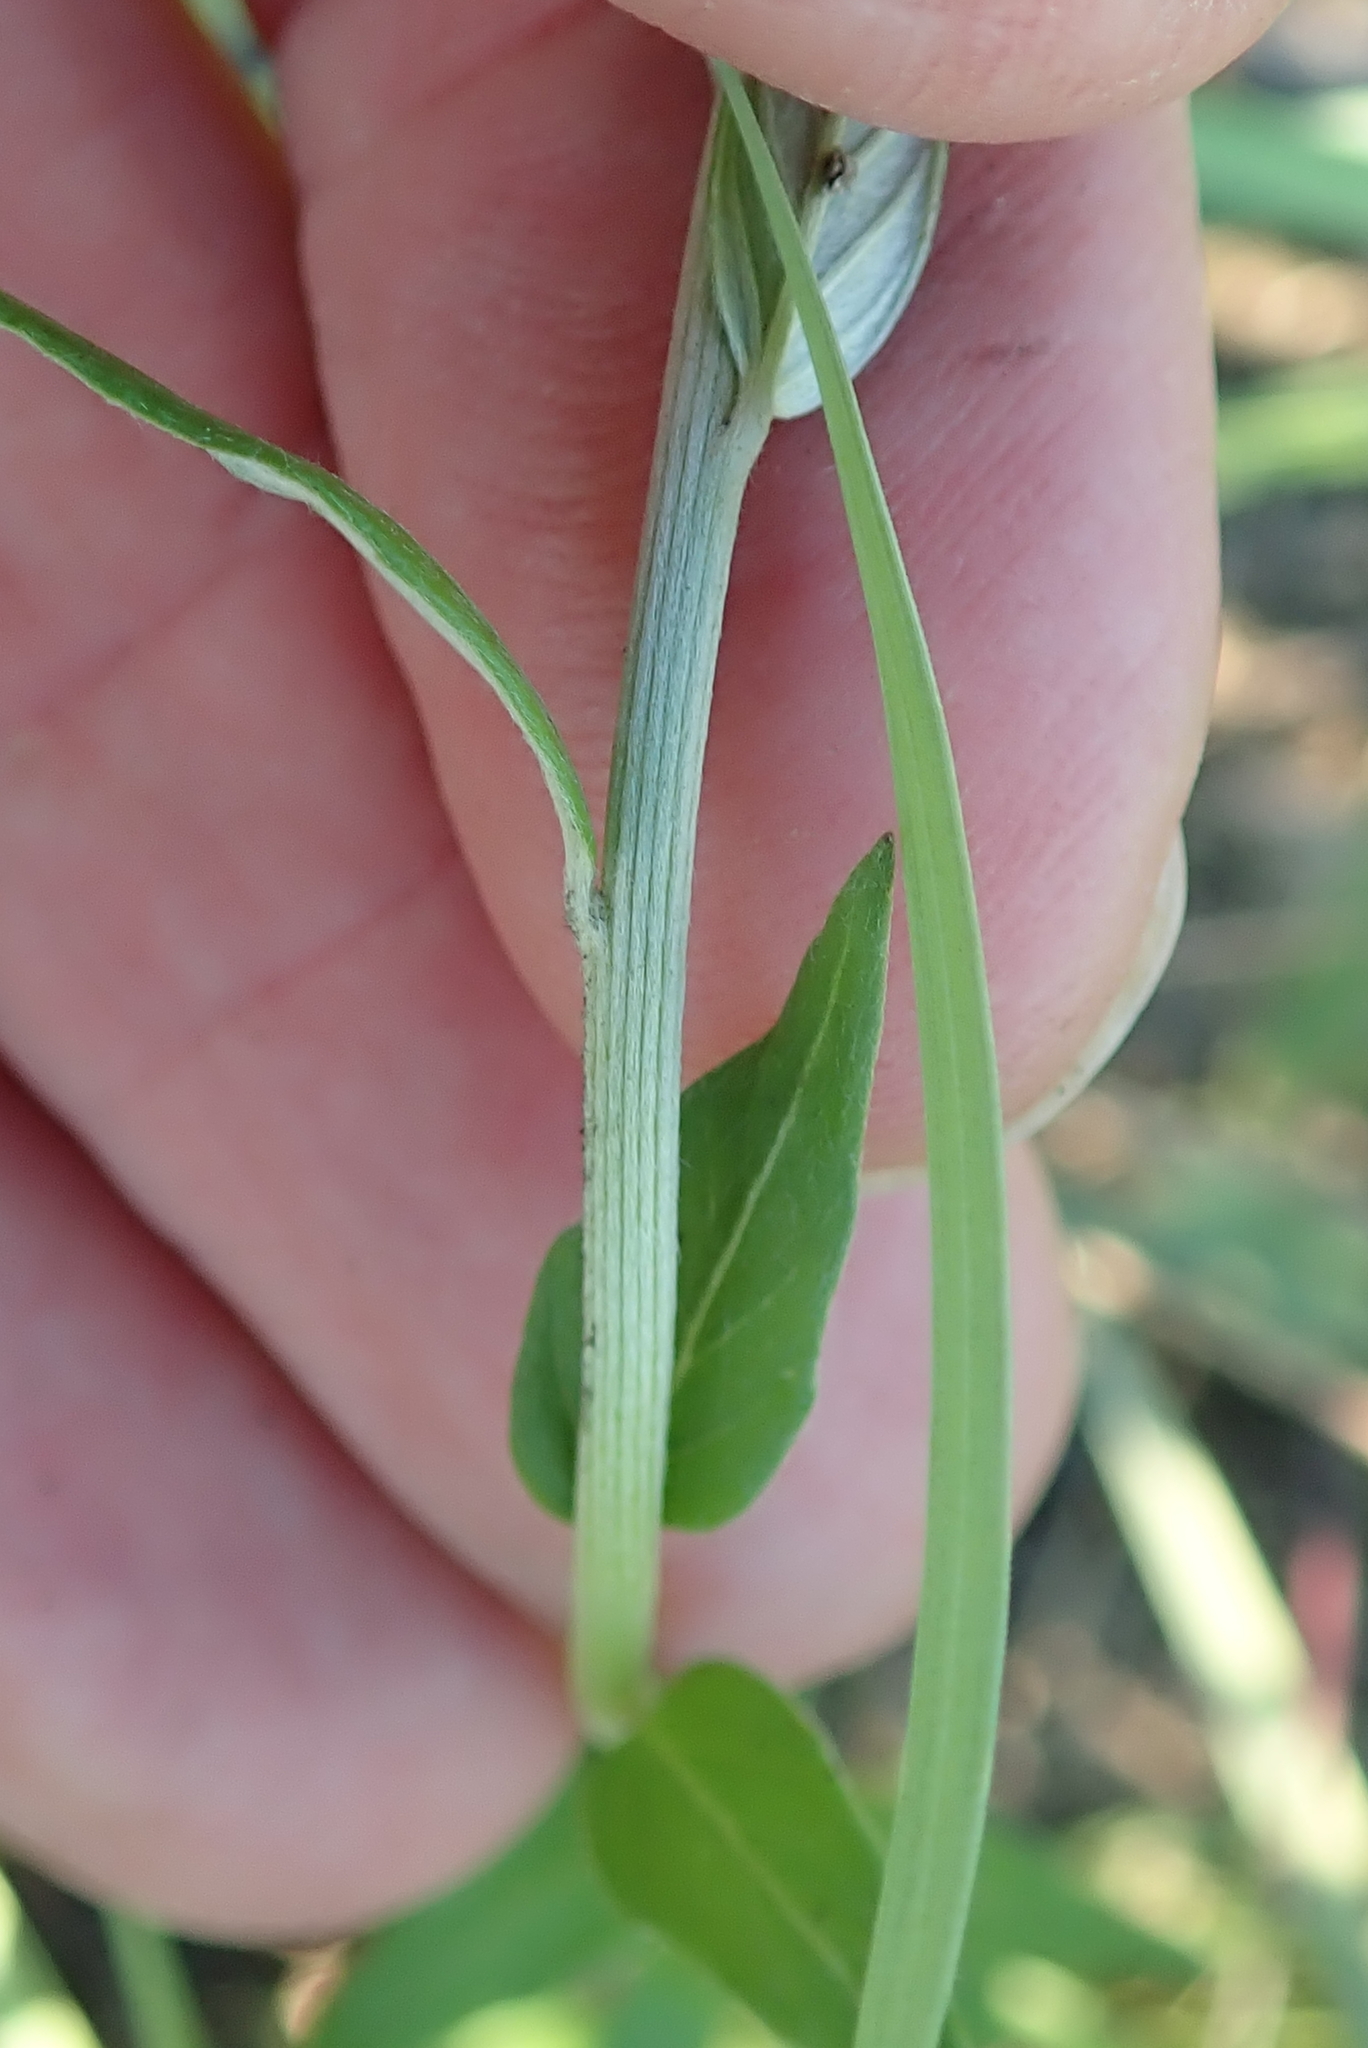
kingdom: Plantae
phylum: Tracheophyta
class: Magnoliopsida
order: Asterales
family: Asteraceae
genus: Hilliardiella
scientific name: Hilliardiella oligocephala
